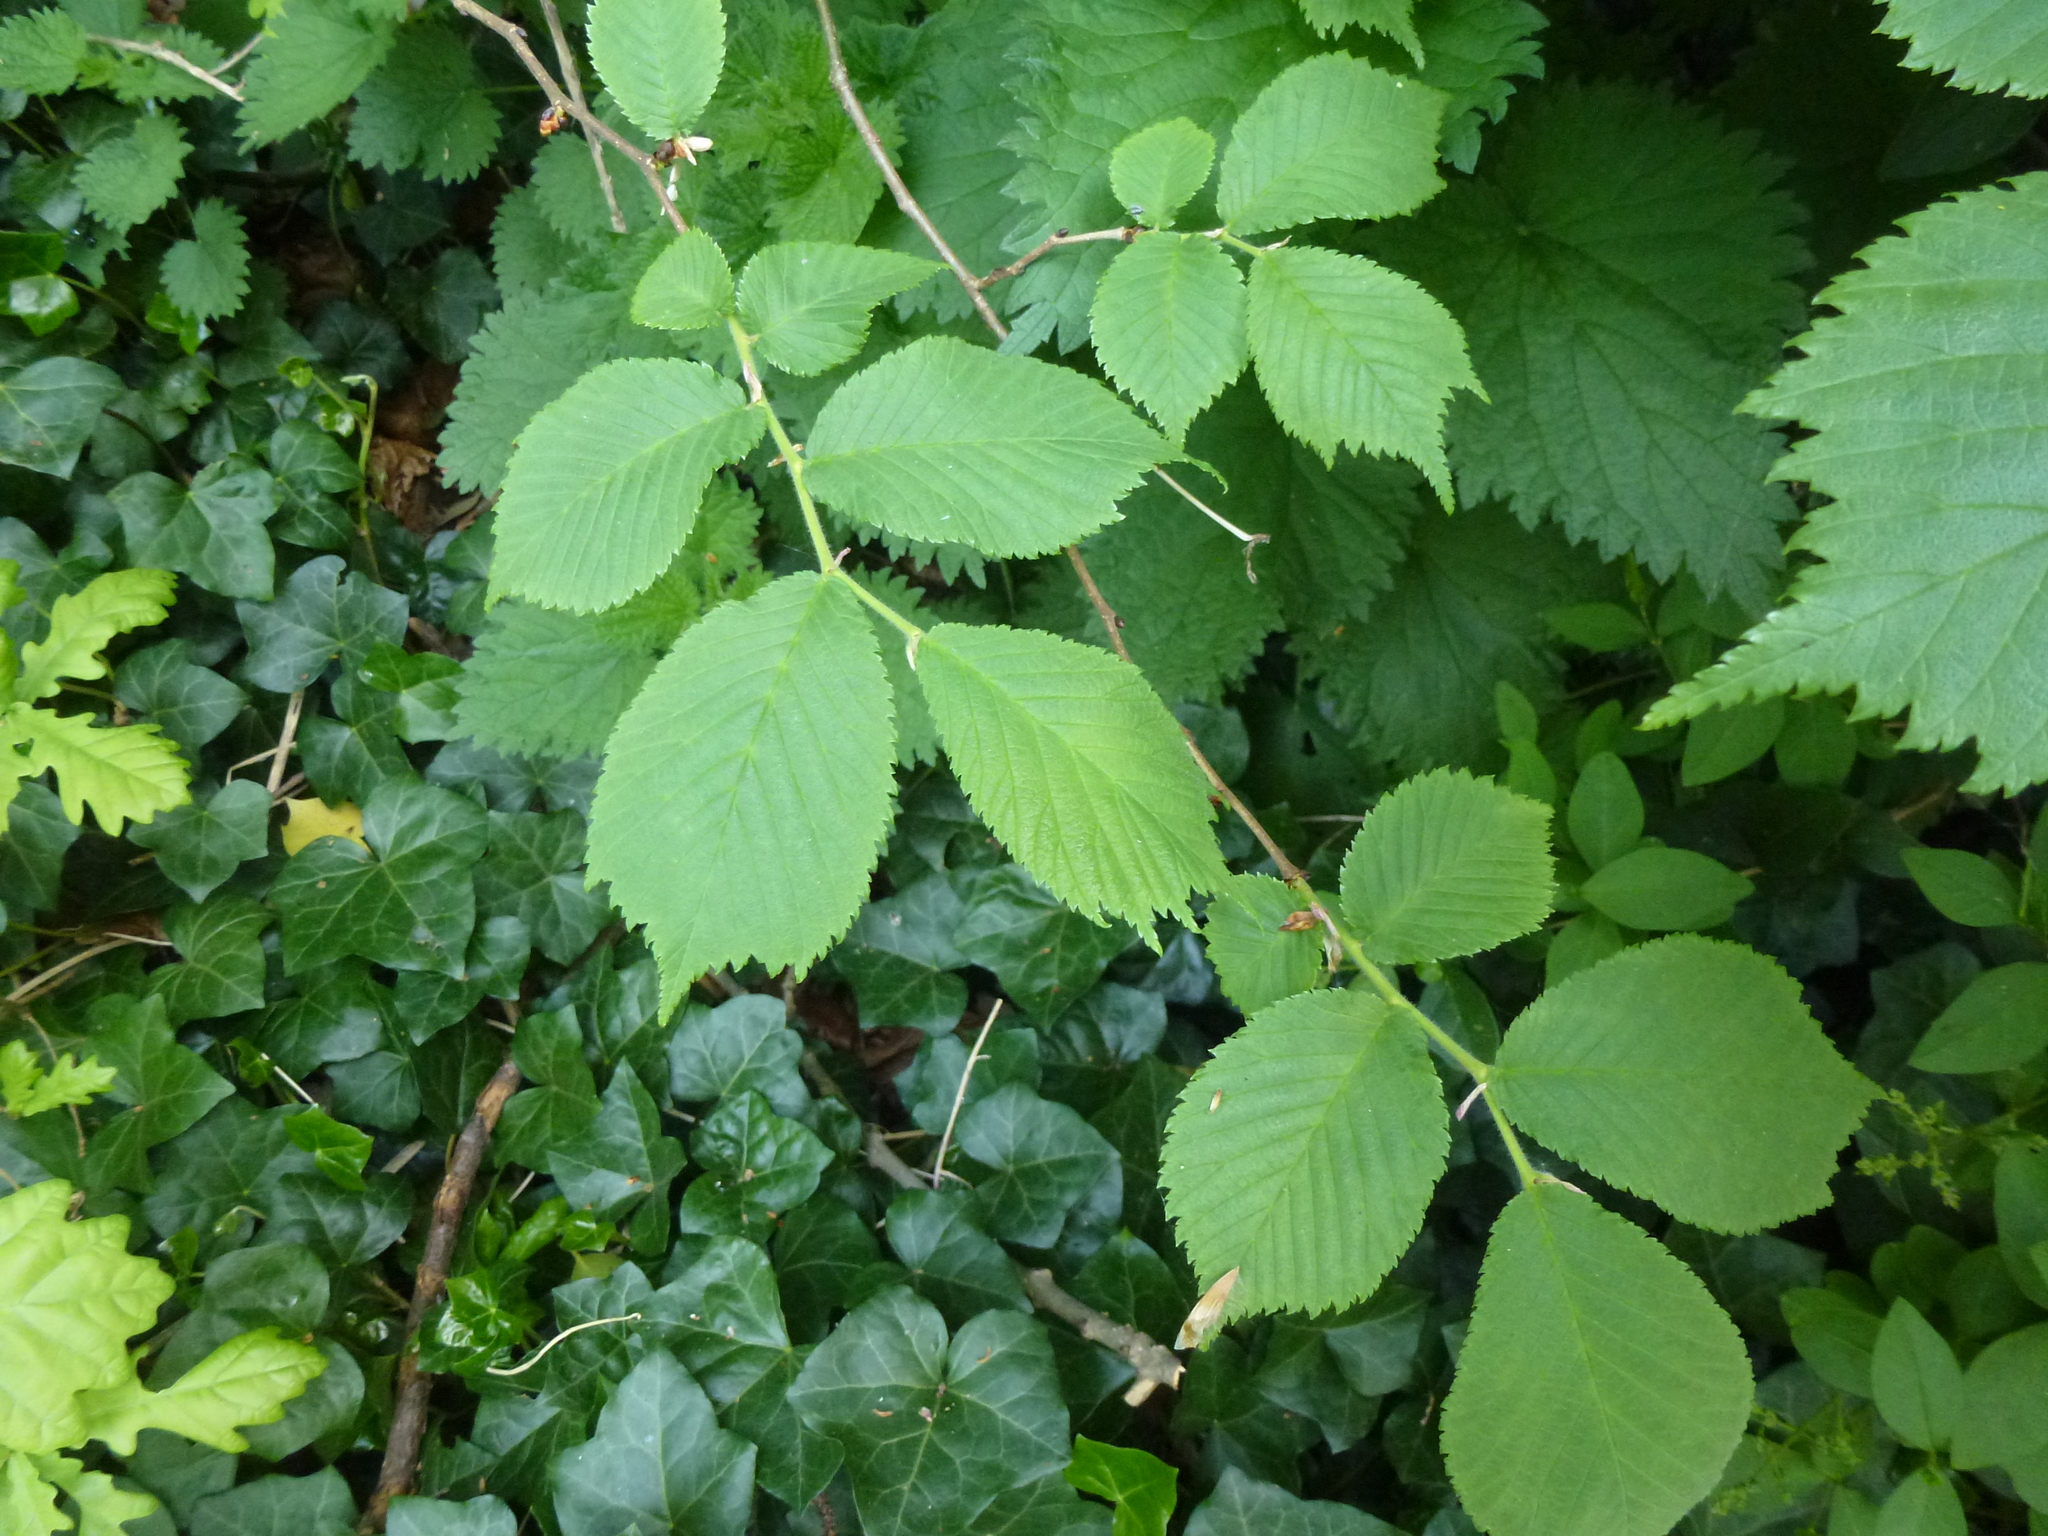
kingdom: Plantae
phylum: Tracheophyta
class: Magnoliopsida
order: Rosales
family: Ulmaceae
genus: Ulmus
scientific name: Ulmus glabra
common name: Wych elm
